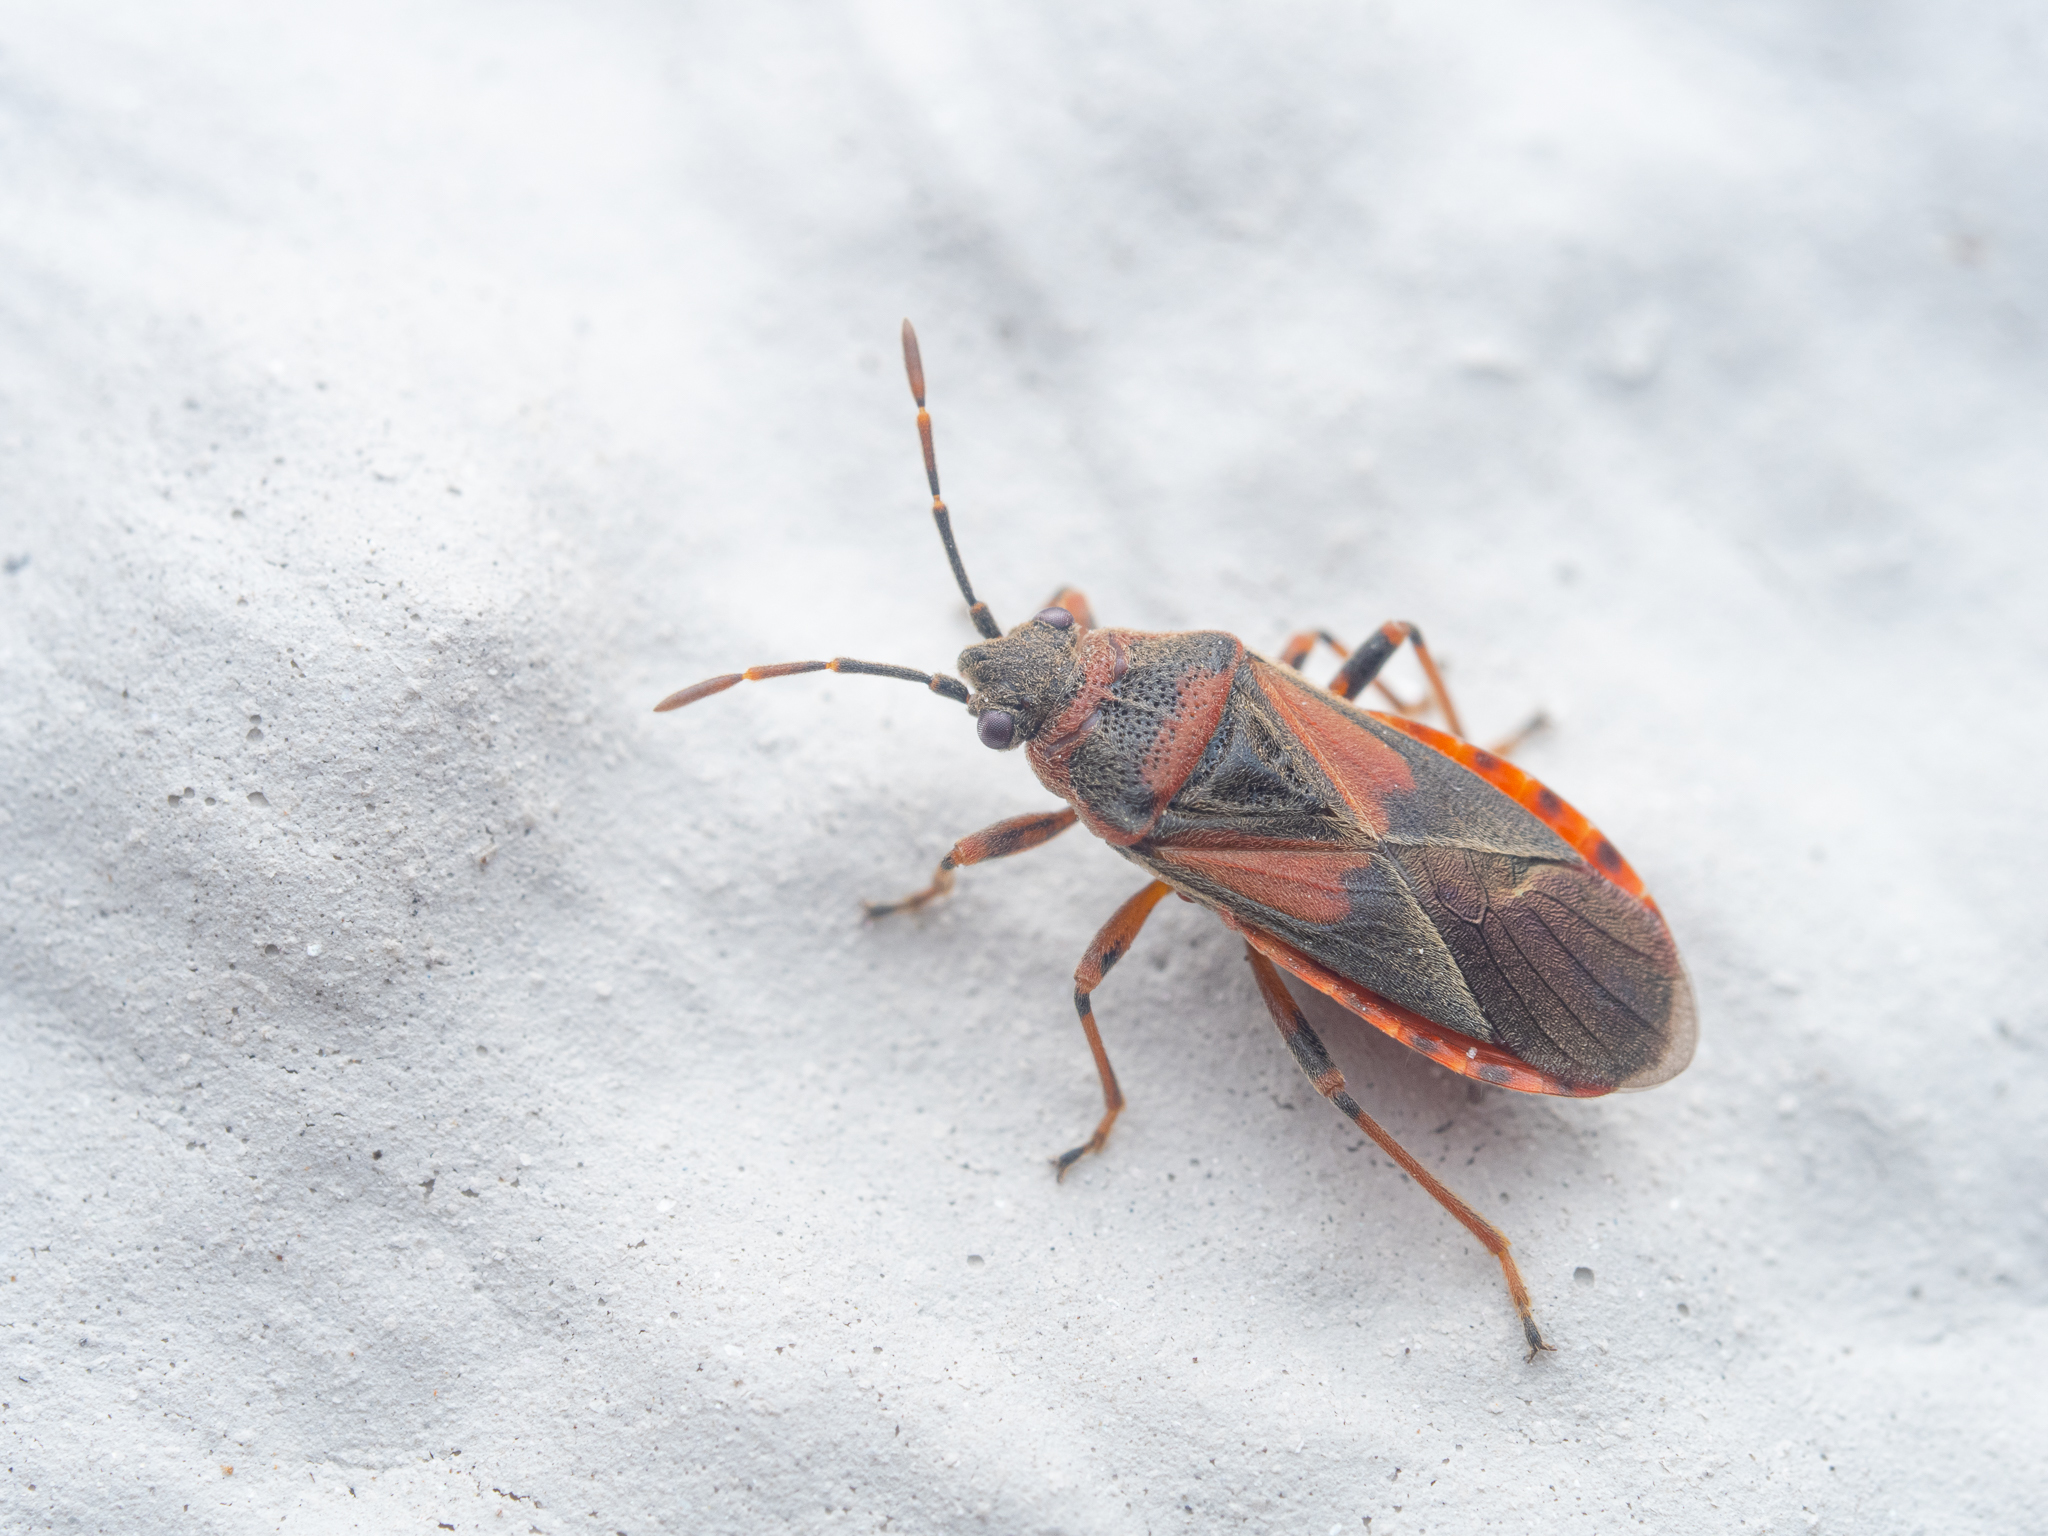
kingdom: Animalia
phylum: Arthropoda
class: Insecta
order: Hemiptera
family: Lygaeidae
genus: Arocatus
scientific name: Arocatus melanocephalus
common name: Lygaeid bug
